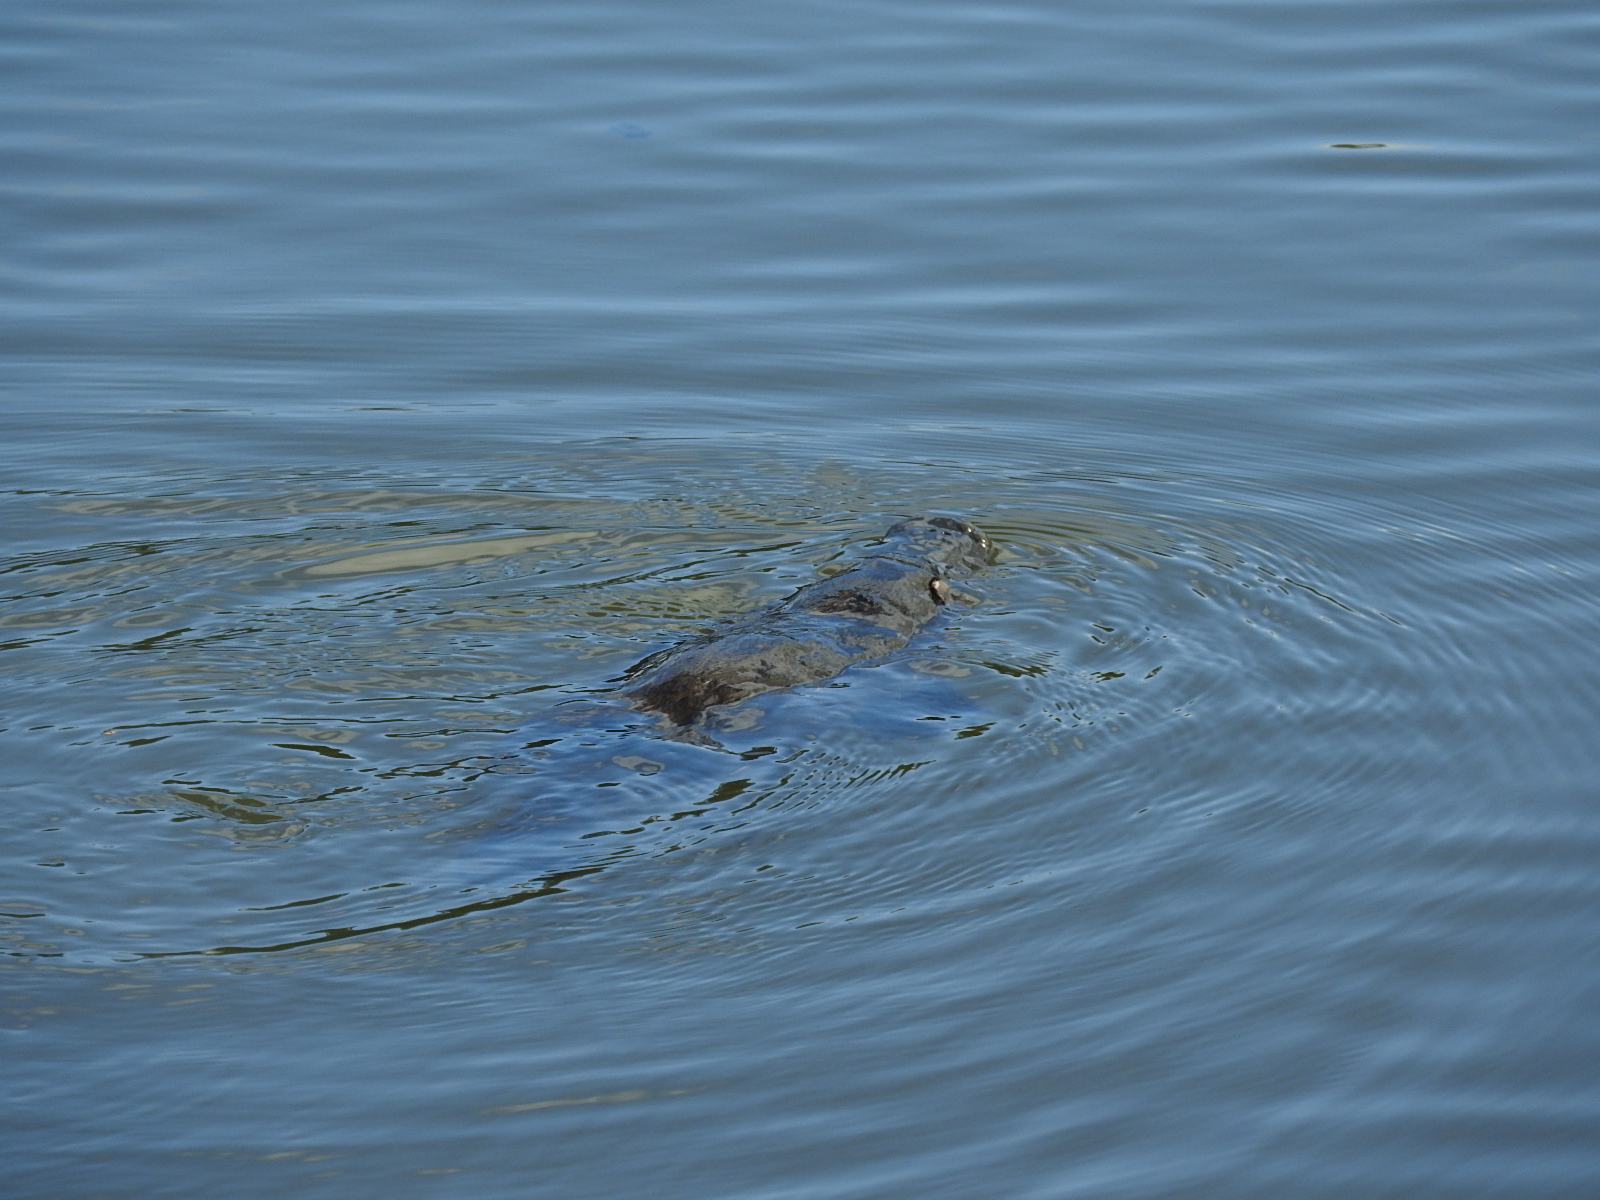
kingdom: Animalia
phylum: Chordata
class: Mammalia
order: Monotremata
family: Ornithorhynchidae
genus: Ornithorhynchus
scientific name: Ornithorhynchus anatinus
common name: Platypus
